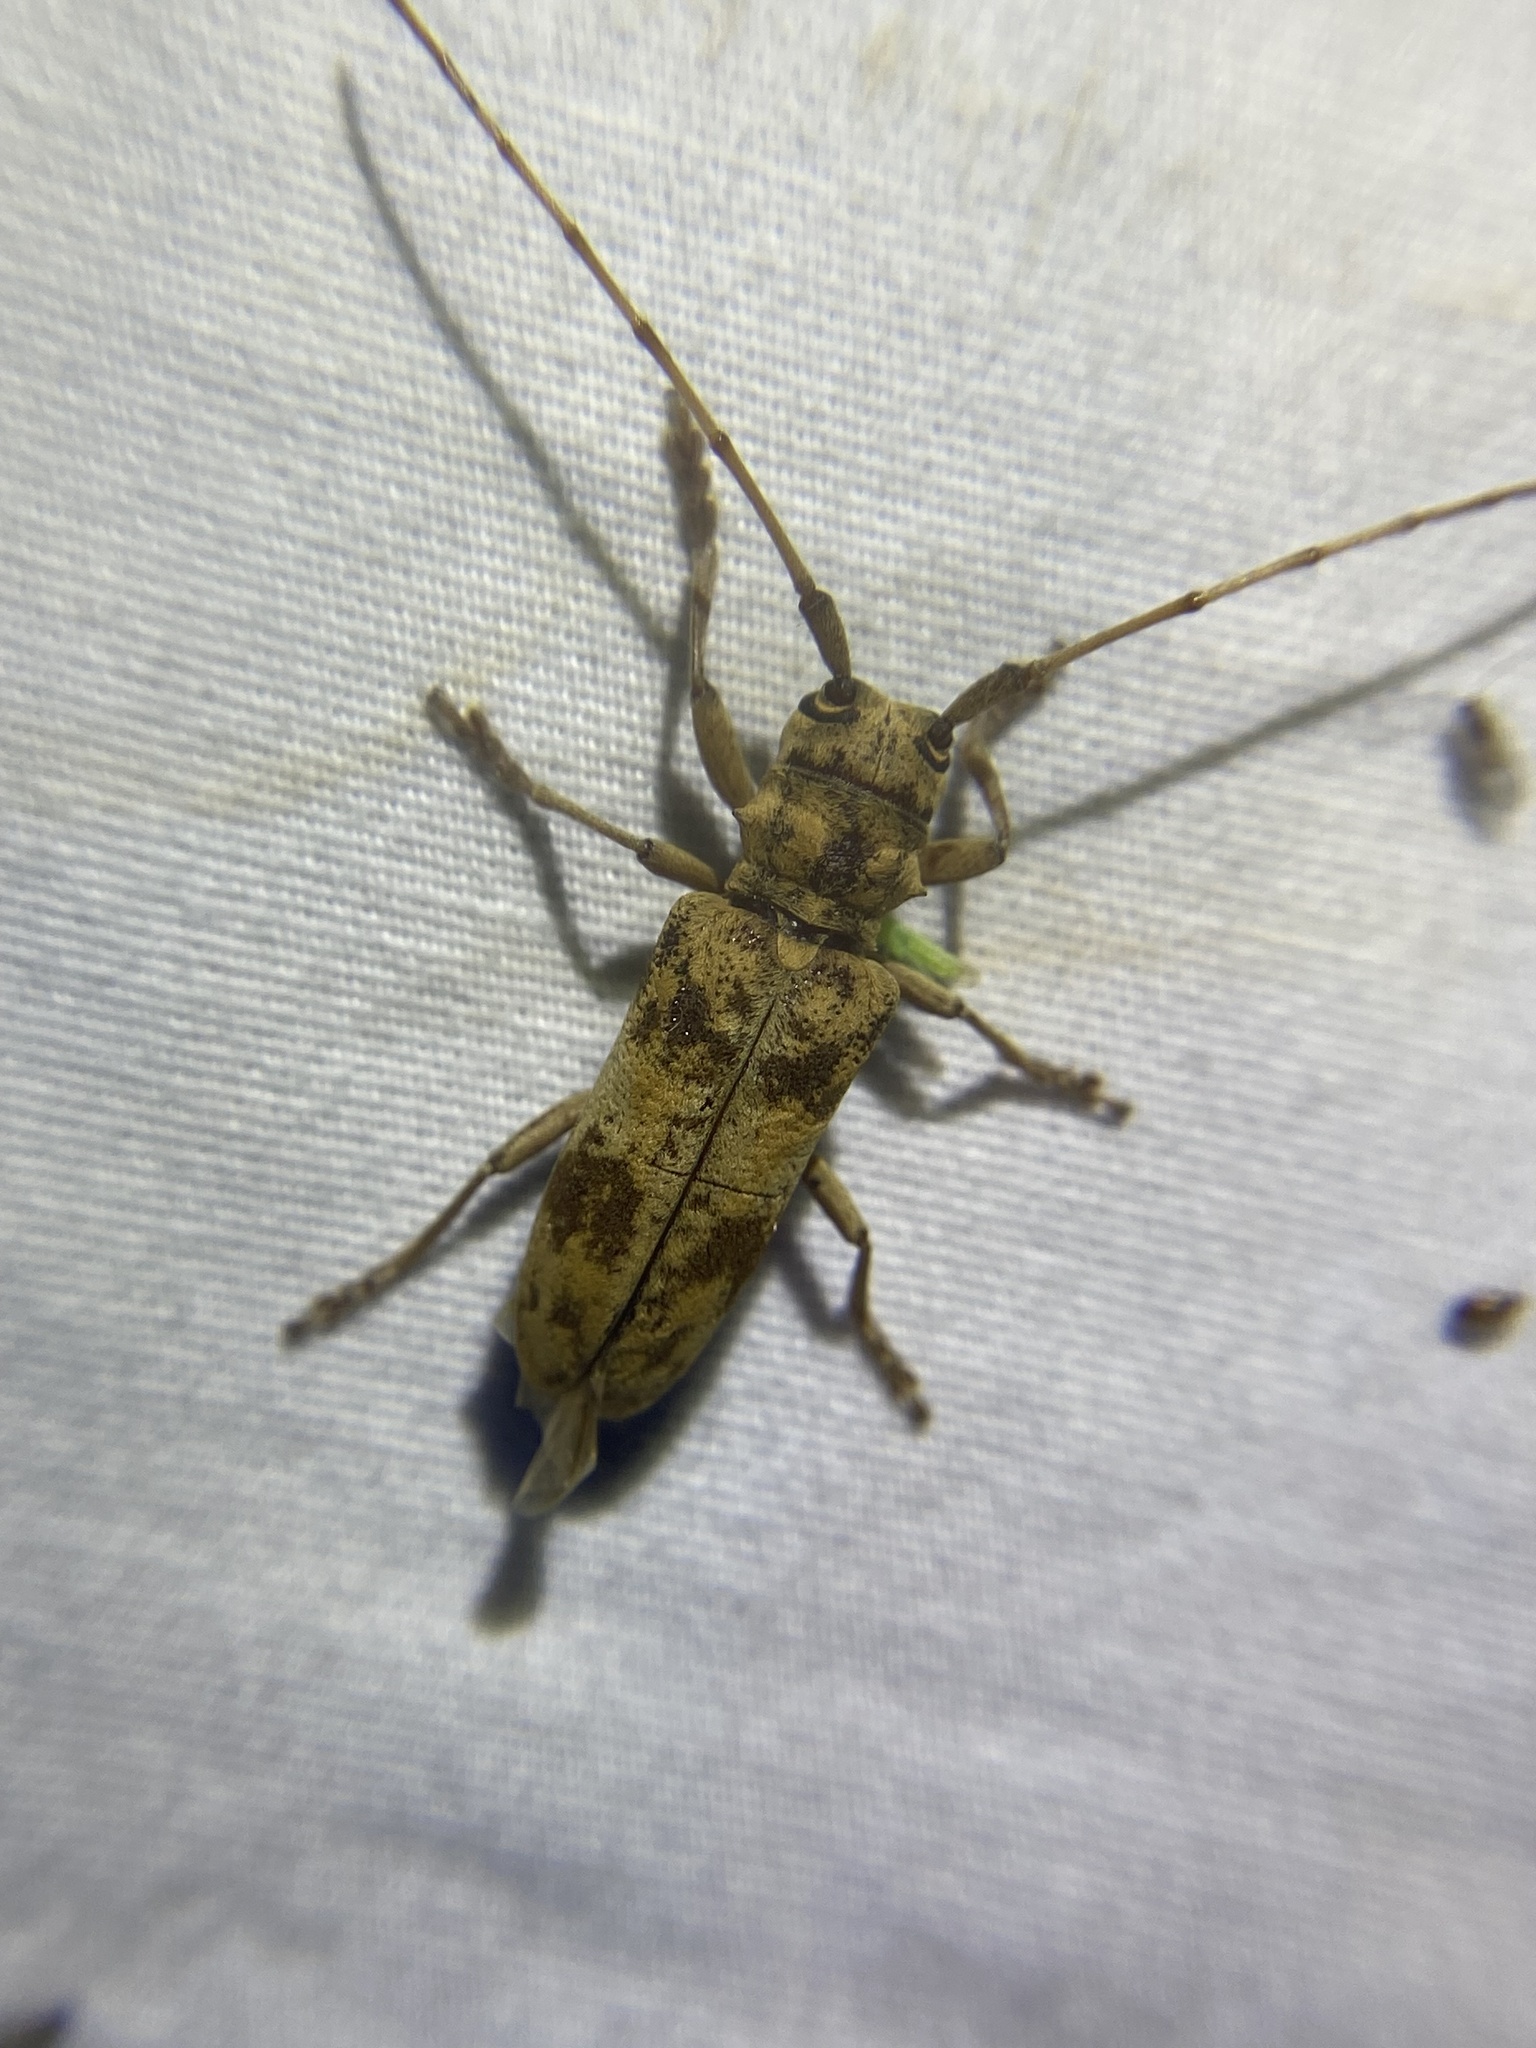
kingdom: Animalia
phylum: Arthropoda
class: Insecta
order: Coleoptera
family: Cerambycidae
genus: Goes
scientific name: Goes variegatus
